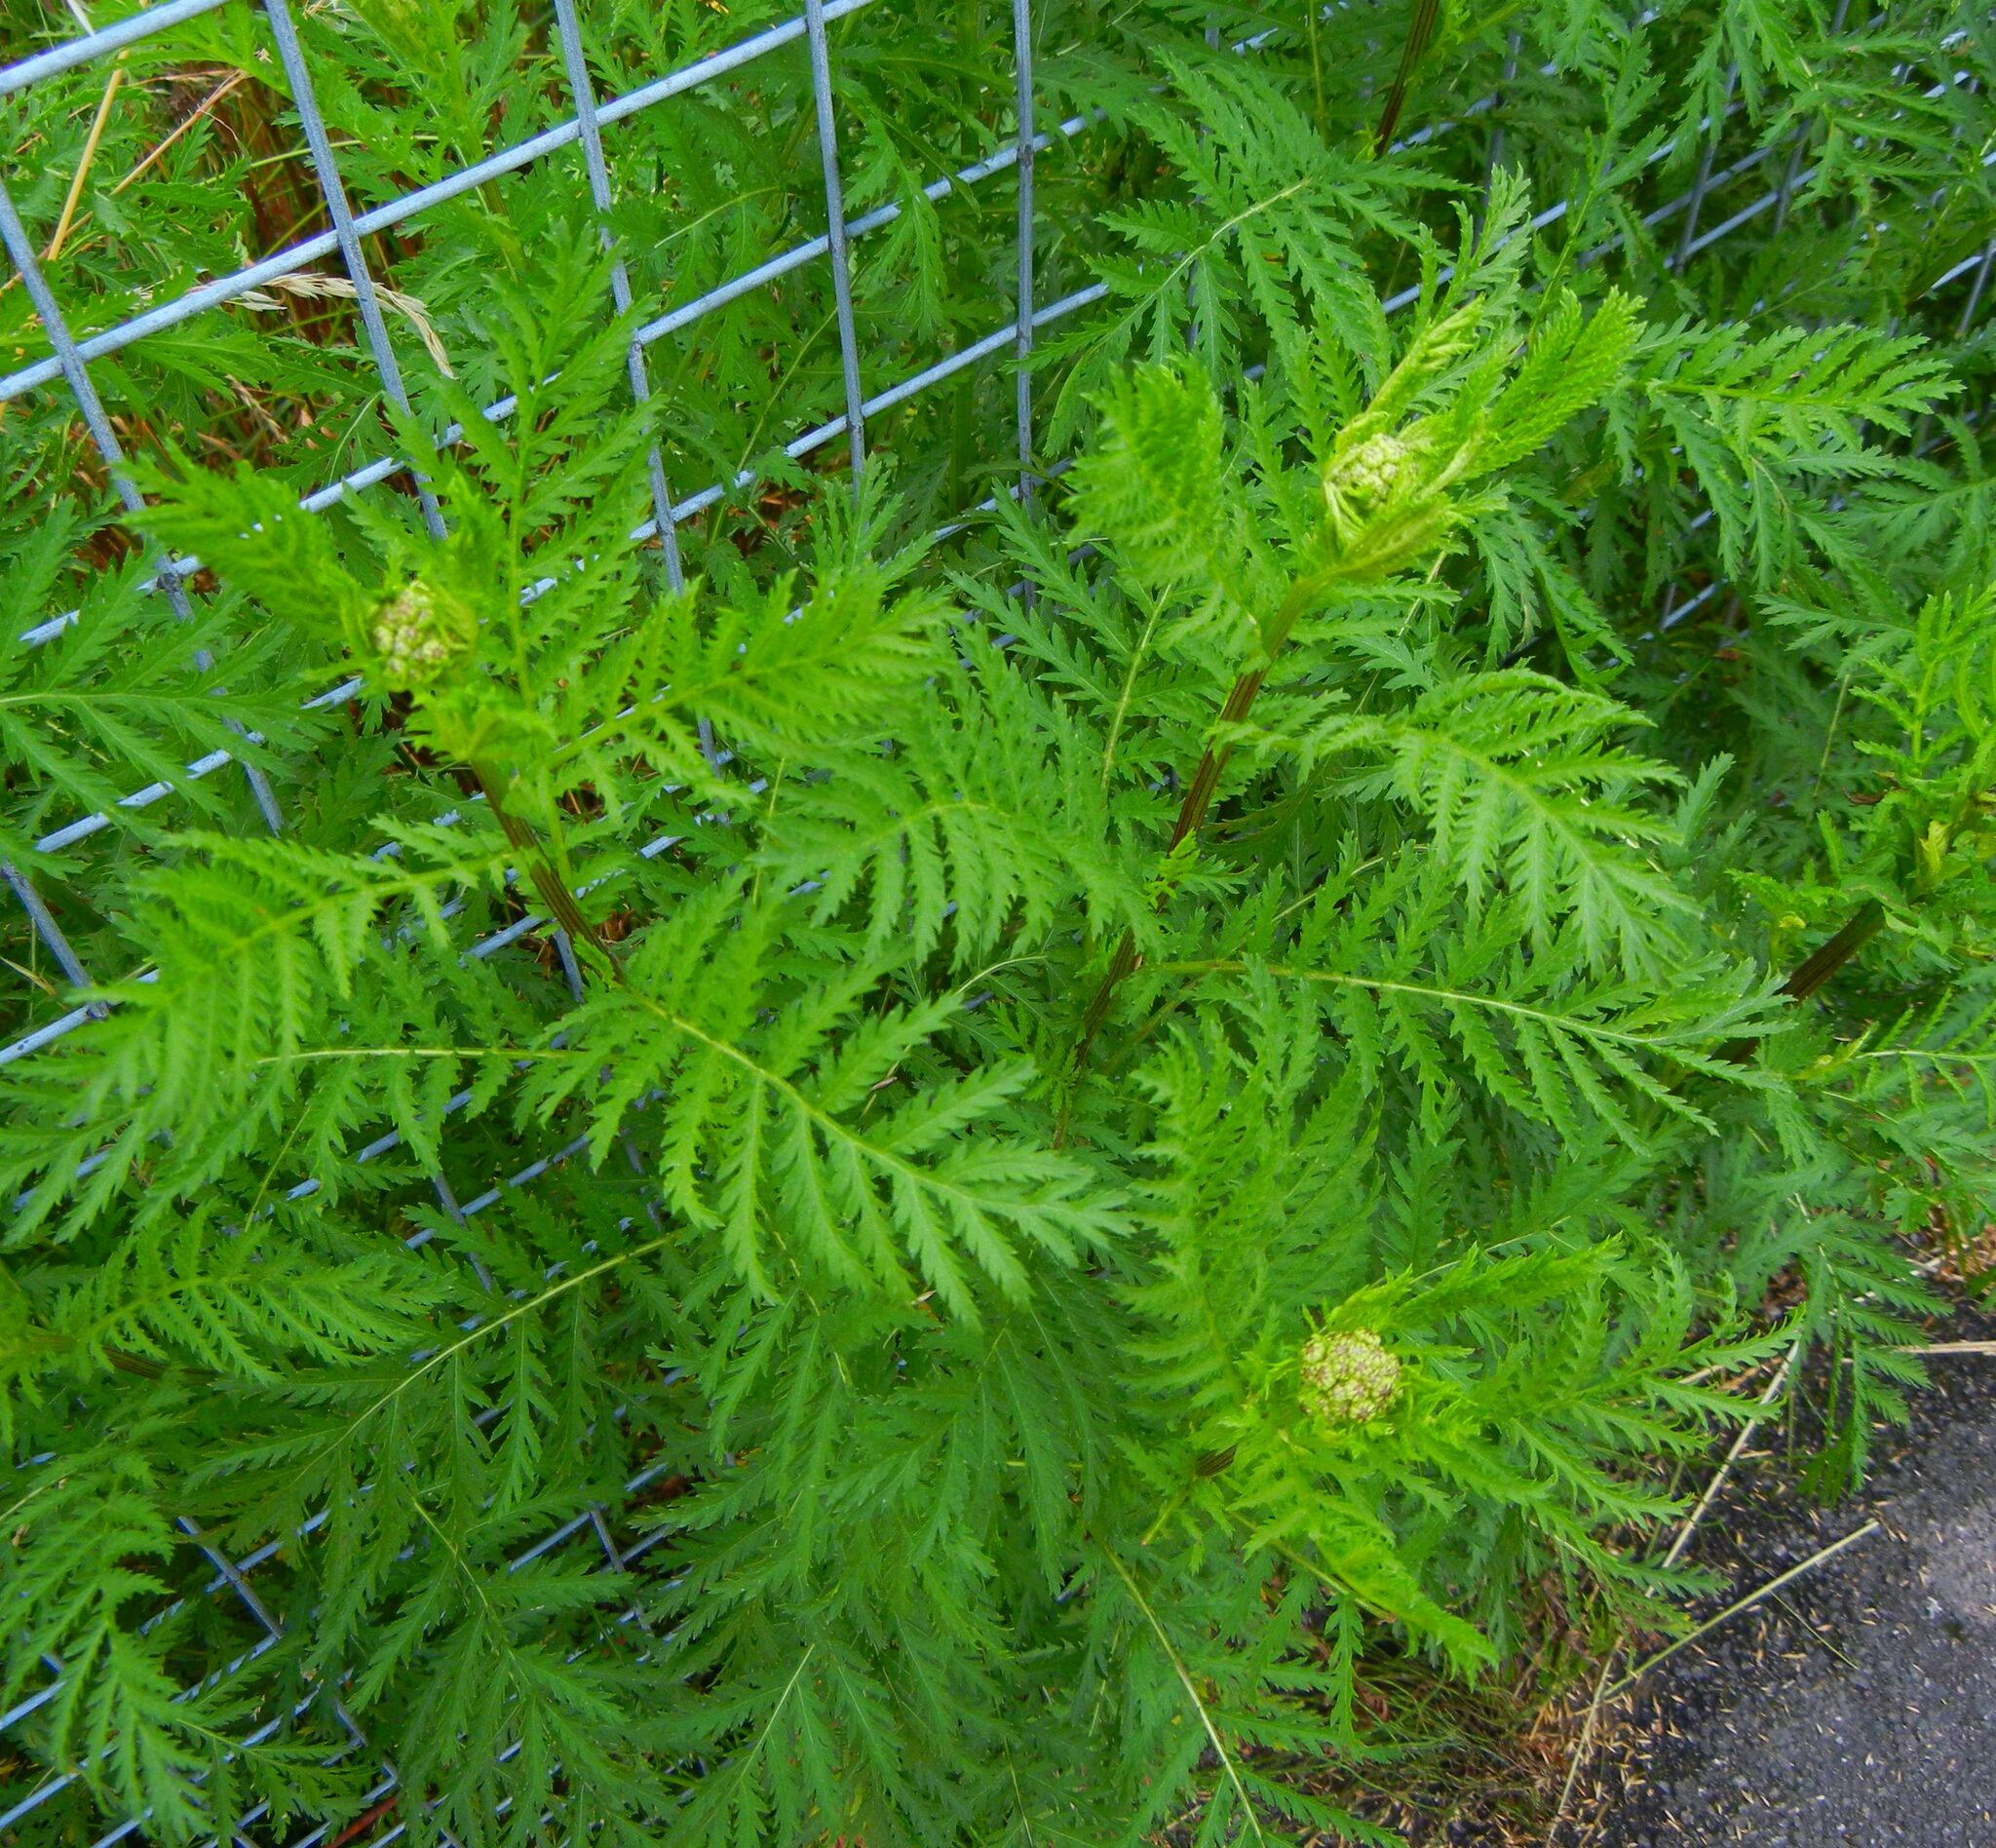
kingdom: Plantae
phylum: Tracheophyta
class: Magnoliopsida
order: Asterales
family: Asteraceae
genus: Tanacetum
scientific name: Tanacetum vulgare
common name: Common tansy
